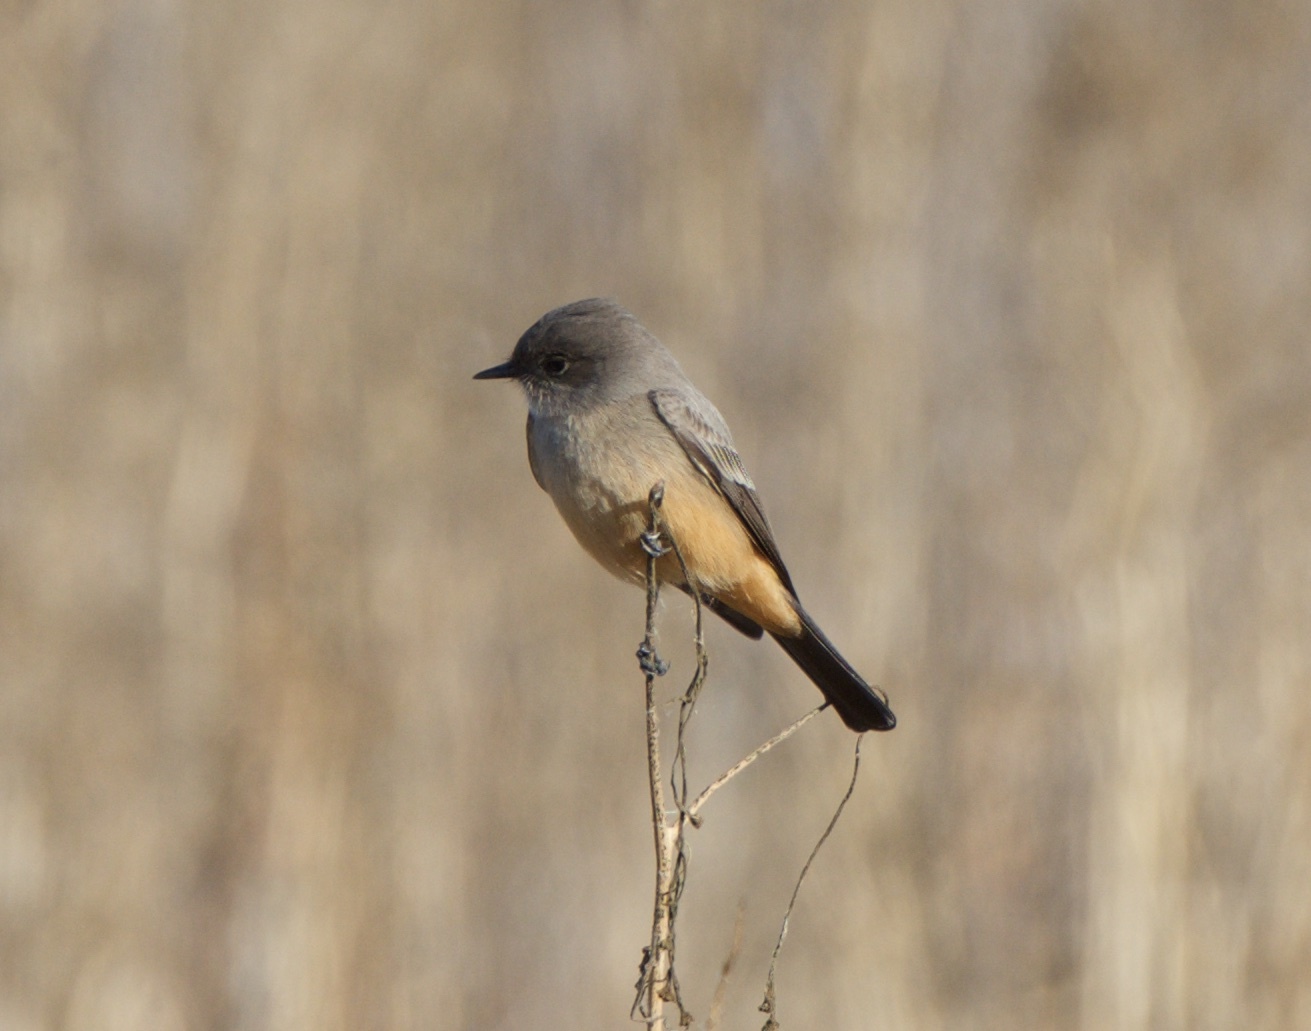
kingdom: Animalia
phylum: Chordata
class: Aves
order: Passeriformes
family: Tyrannidae
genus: Sayornis
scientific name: Sayornis saya
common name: Say's phoebe
